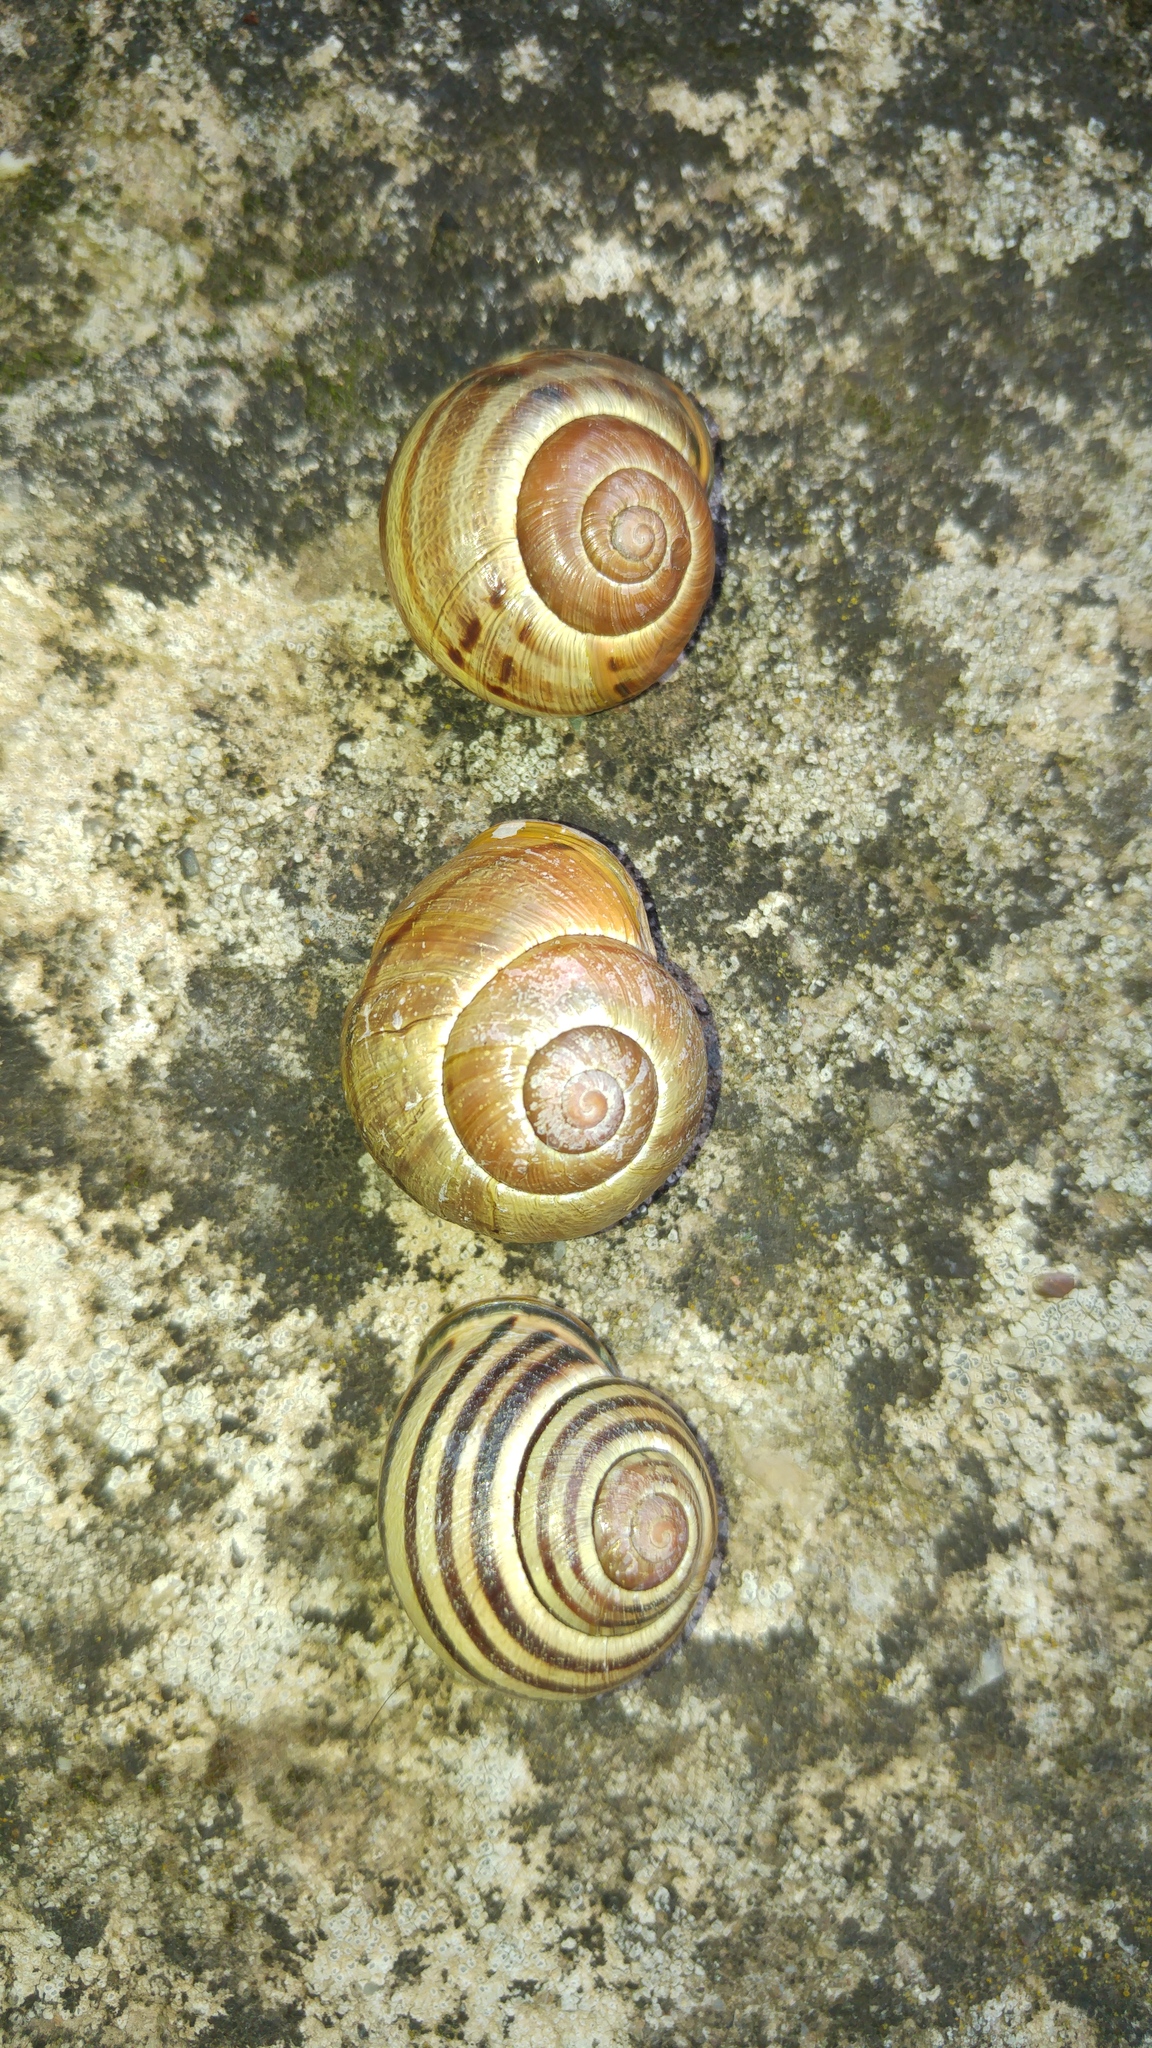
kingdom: Animalia
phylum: Mollusca
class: Gastropoda
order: Stylommatophora
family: Helicidae
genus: Cepaea
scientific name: Cepaea nemoralis
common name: Grovesnail
